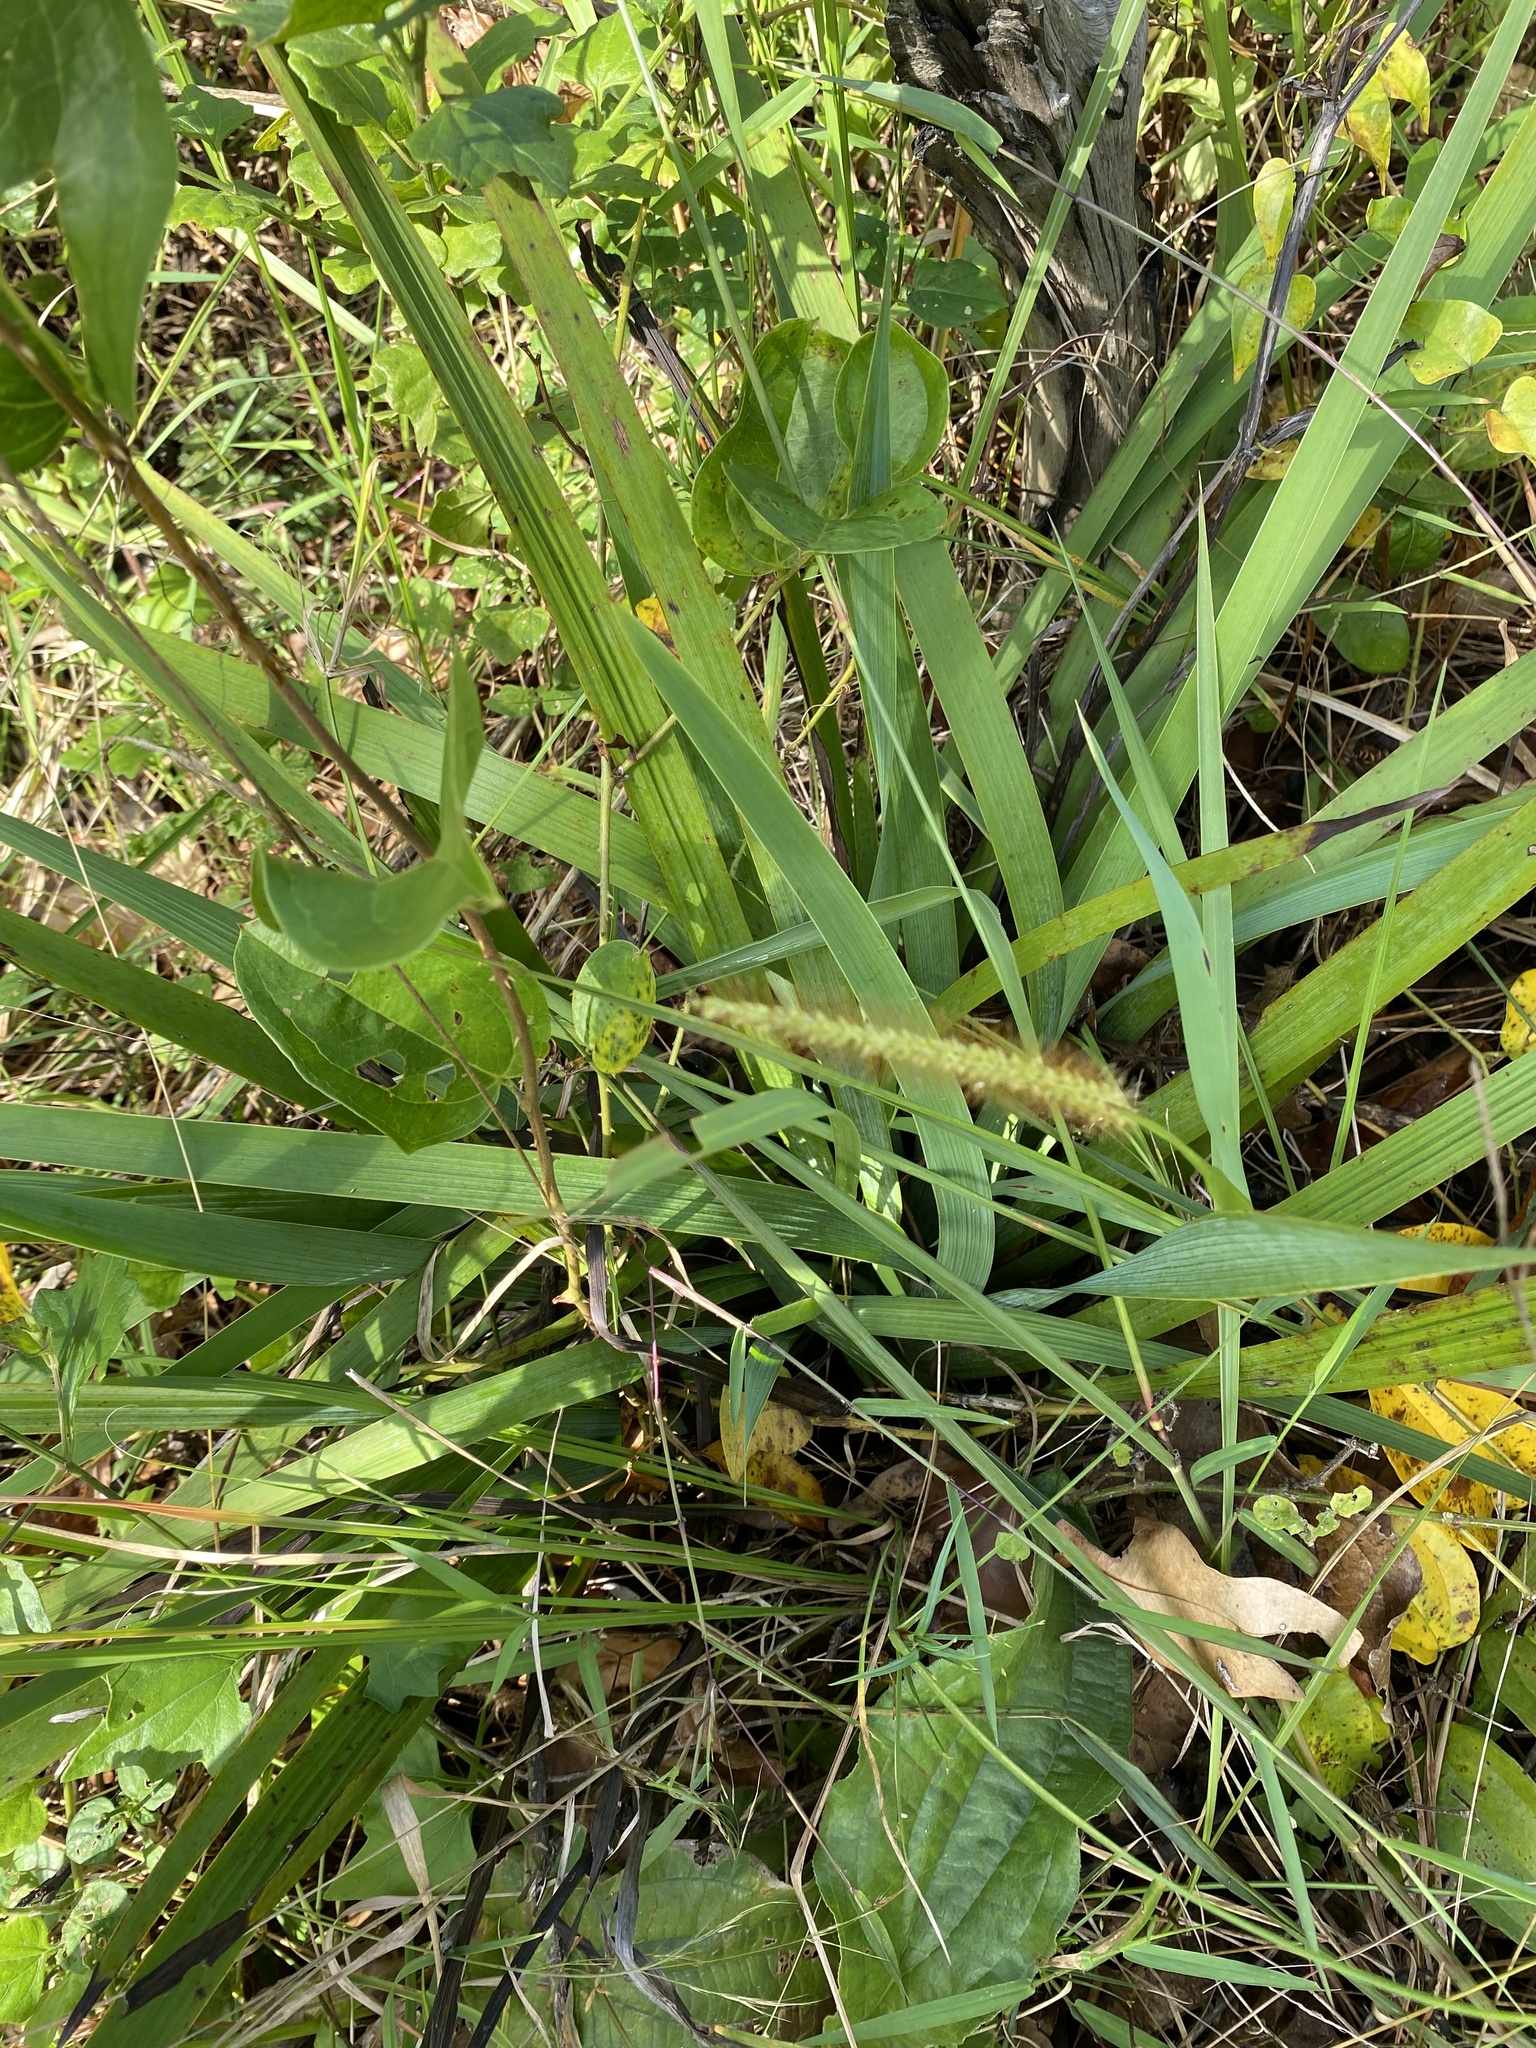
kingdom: Plantae
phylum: Tracheophyta
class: Liliopsida
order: Asparagales
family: Iridaceae
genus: Aristea
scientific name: Aristea ecklonii
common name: Blue corn-lily
